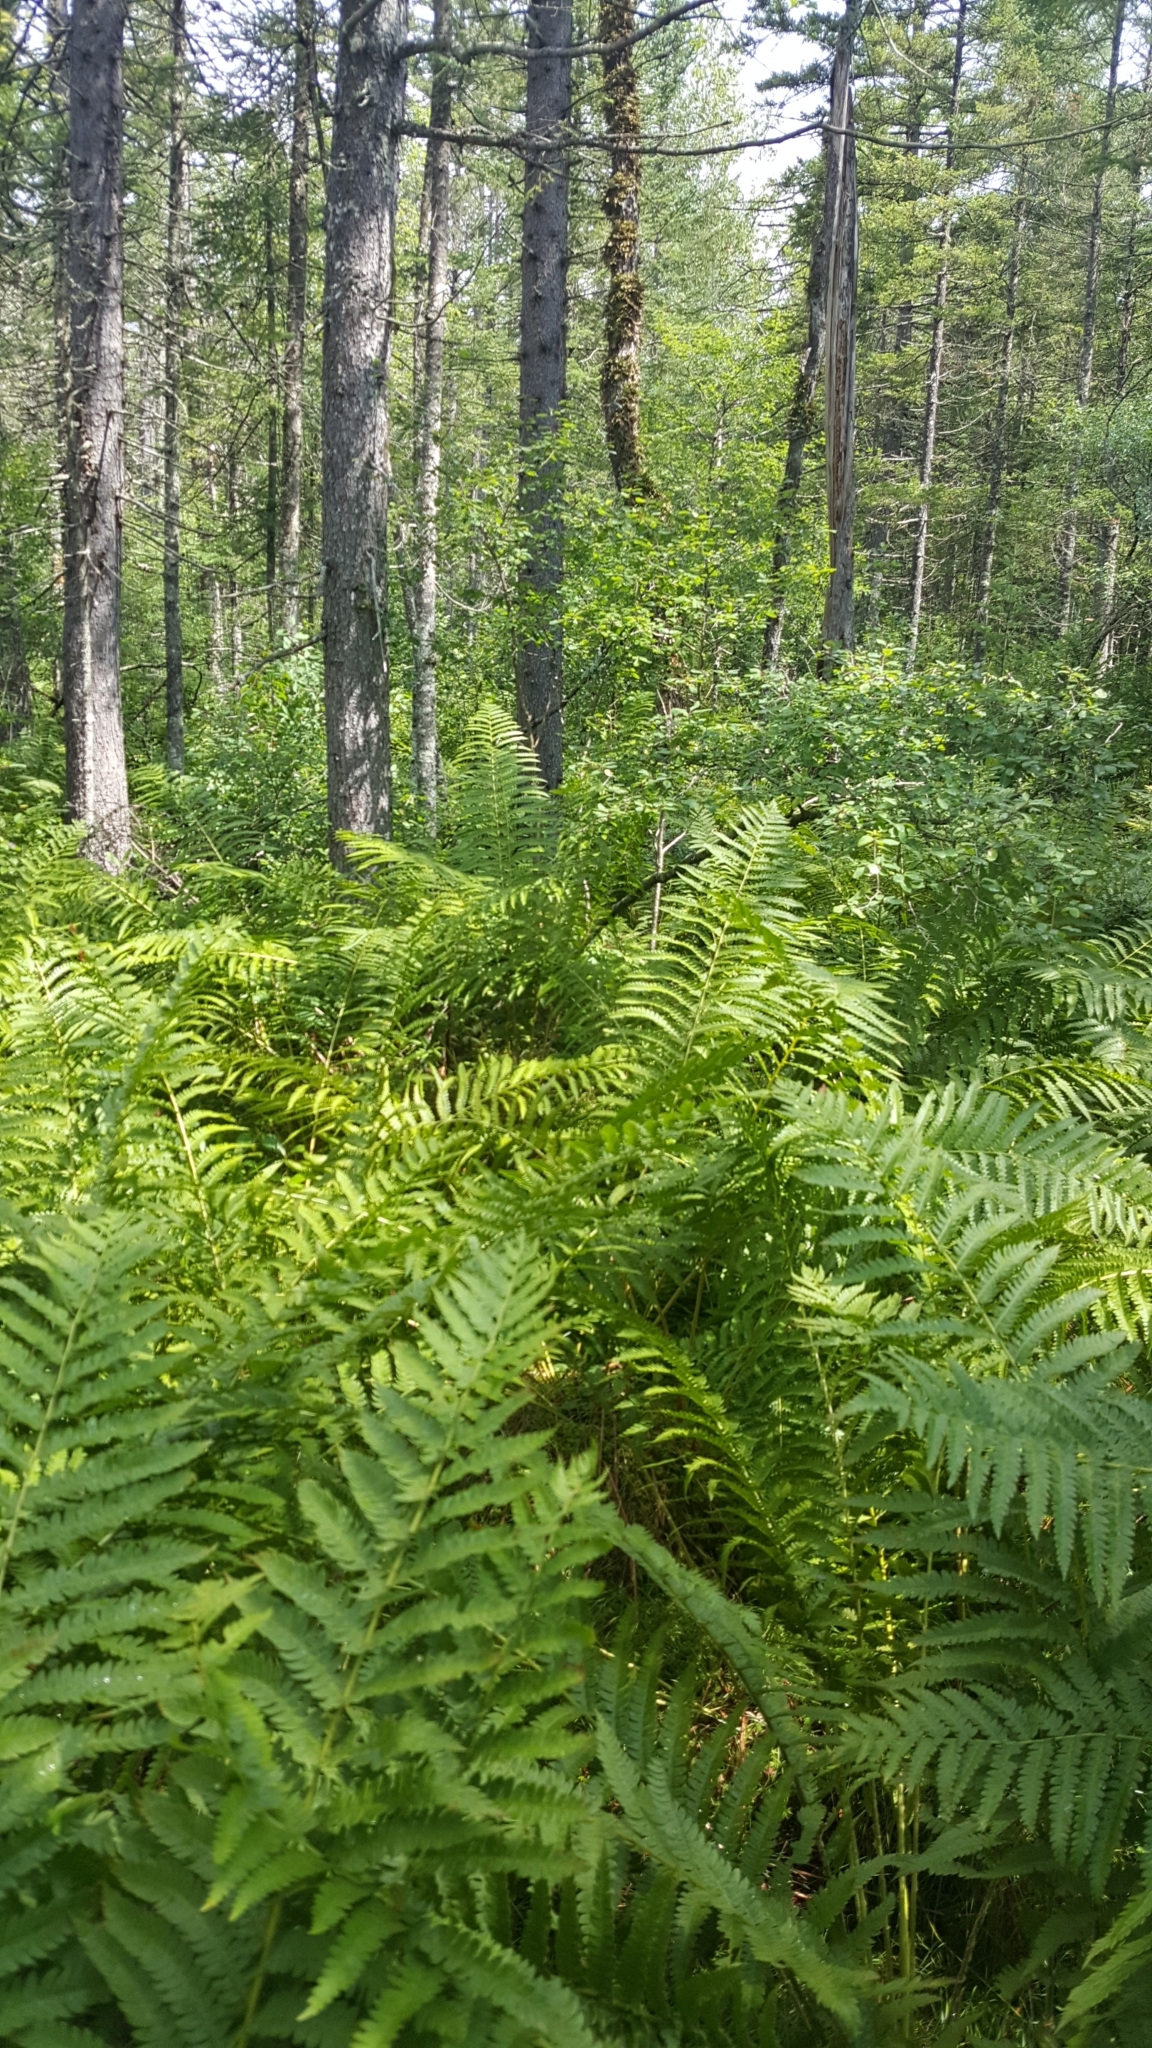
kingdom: Plantae
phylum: Tracheophyta
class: Polypodiopsida
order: Osmundales
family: Osmundaceae
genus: Osmundastrum
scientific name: Osmundastrum cinnamomeum
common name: Cinnamon fern
